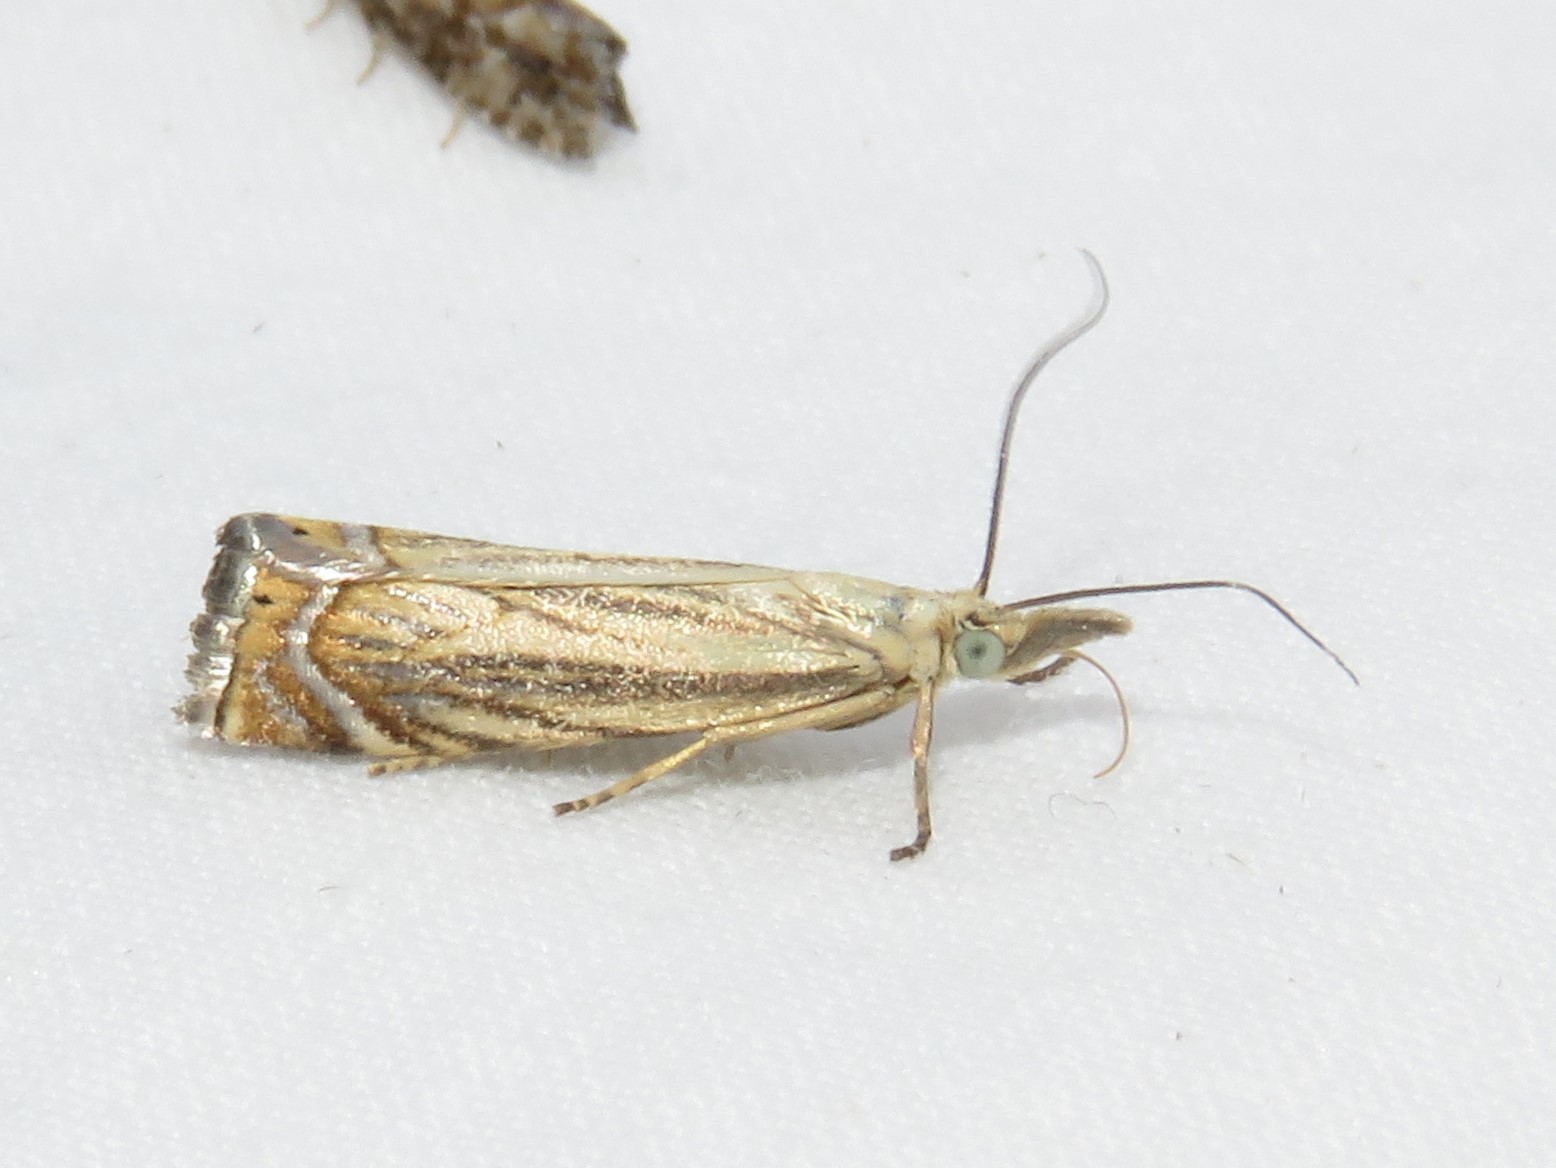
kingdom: Animalia
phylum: Arthropoda
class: Insecta
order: Lepidoptera
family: Crambidae
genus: Chrysoteuchia
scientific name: Chrysoteuchia topiarius
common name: Topiary grass-veneer
